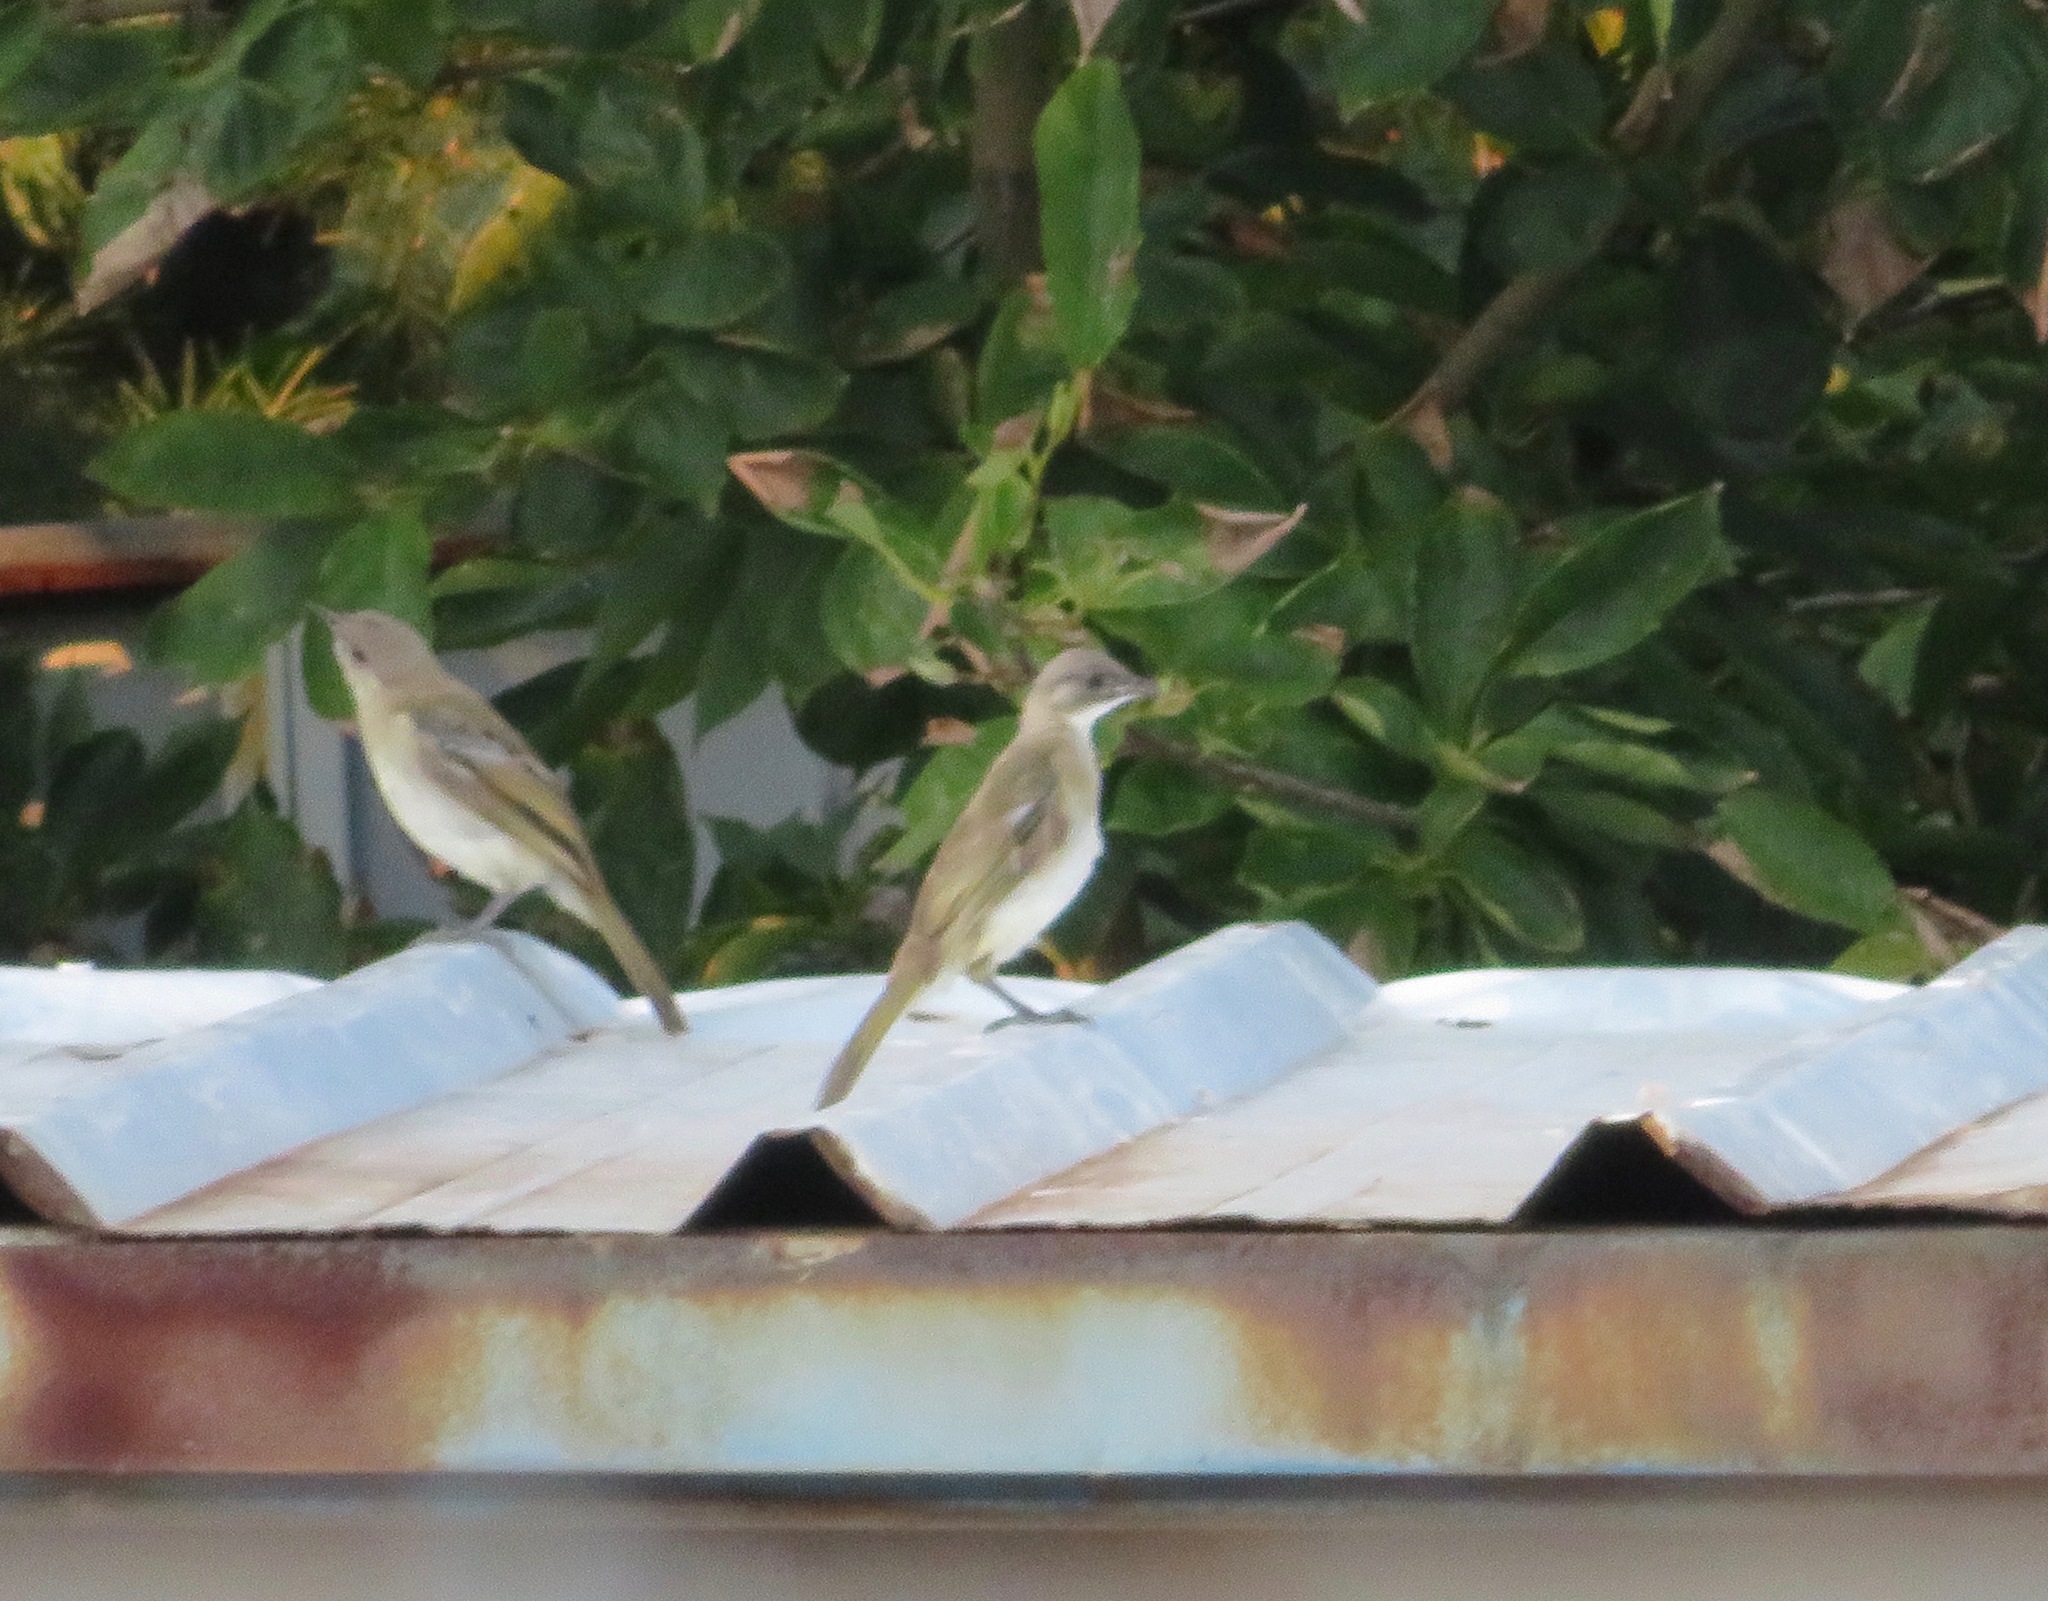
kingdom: Animalia
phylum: Chordata
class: Aves
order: Passeriformes
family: Pycnonotidae
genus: Pycnonotus
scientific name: Pycnonotus sinensis
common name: Light-vented bulbul
